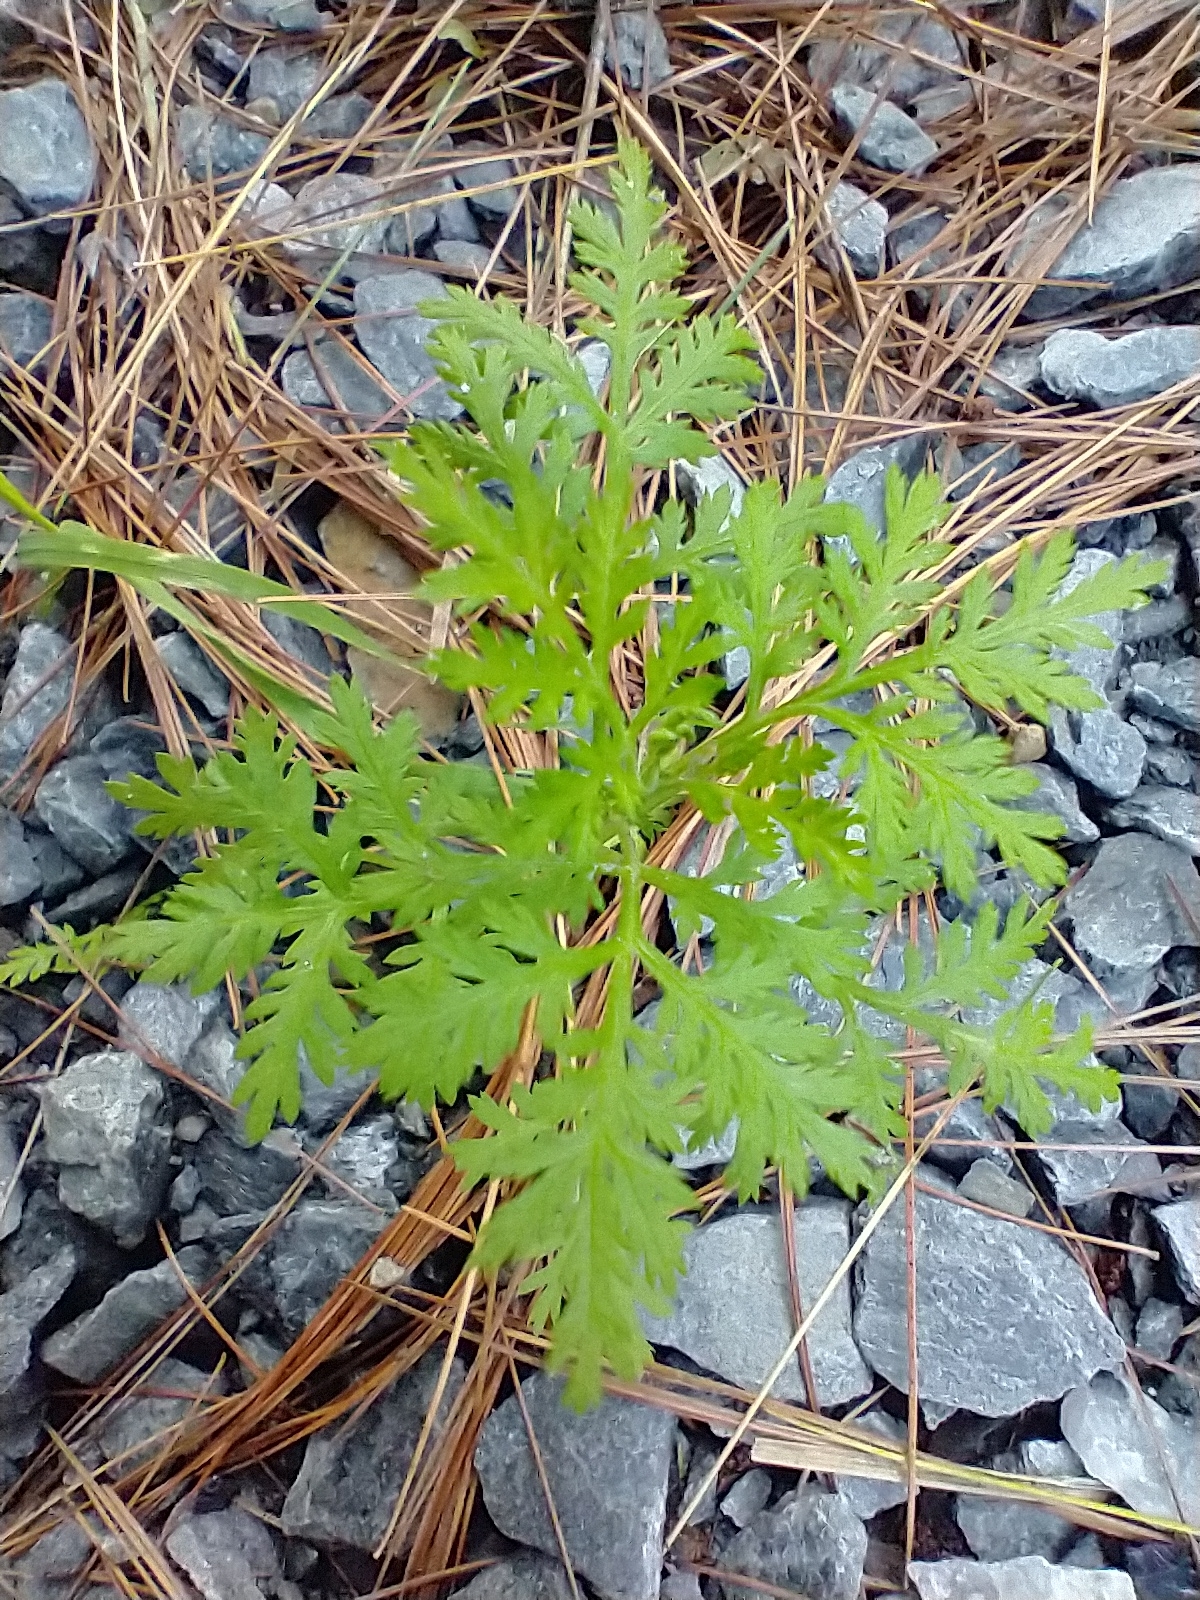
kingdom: Plantae
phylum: Tracheophyta
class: Magnoliopsida
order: Asterales
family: Asteraceae
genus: Artemisia
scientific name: Artemisia annua
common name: Sweet sagewort
